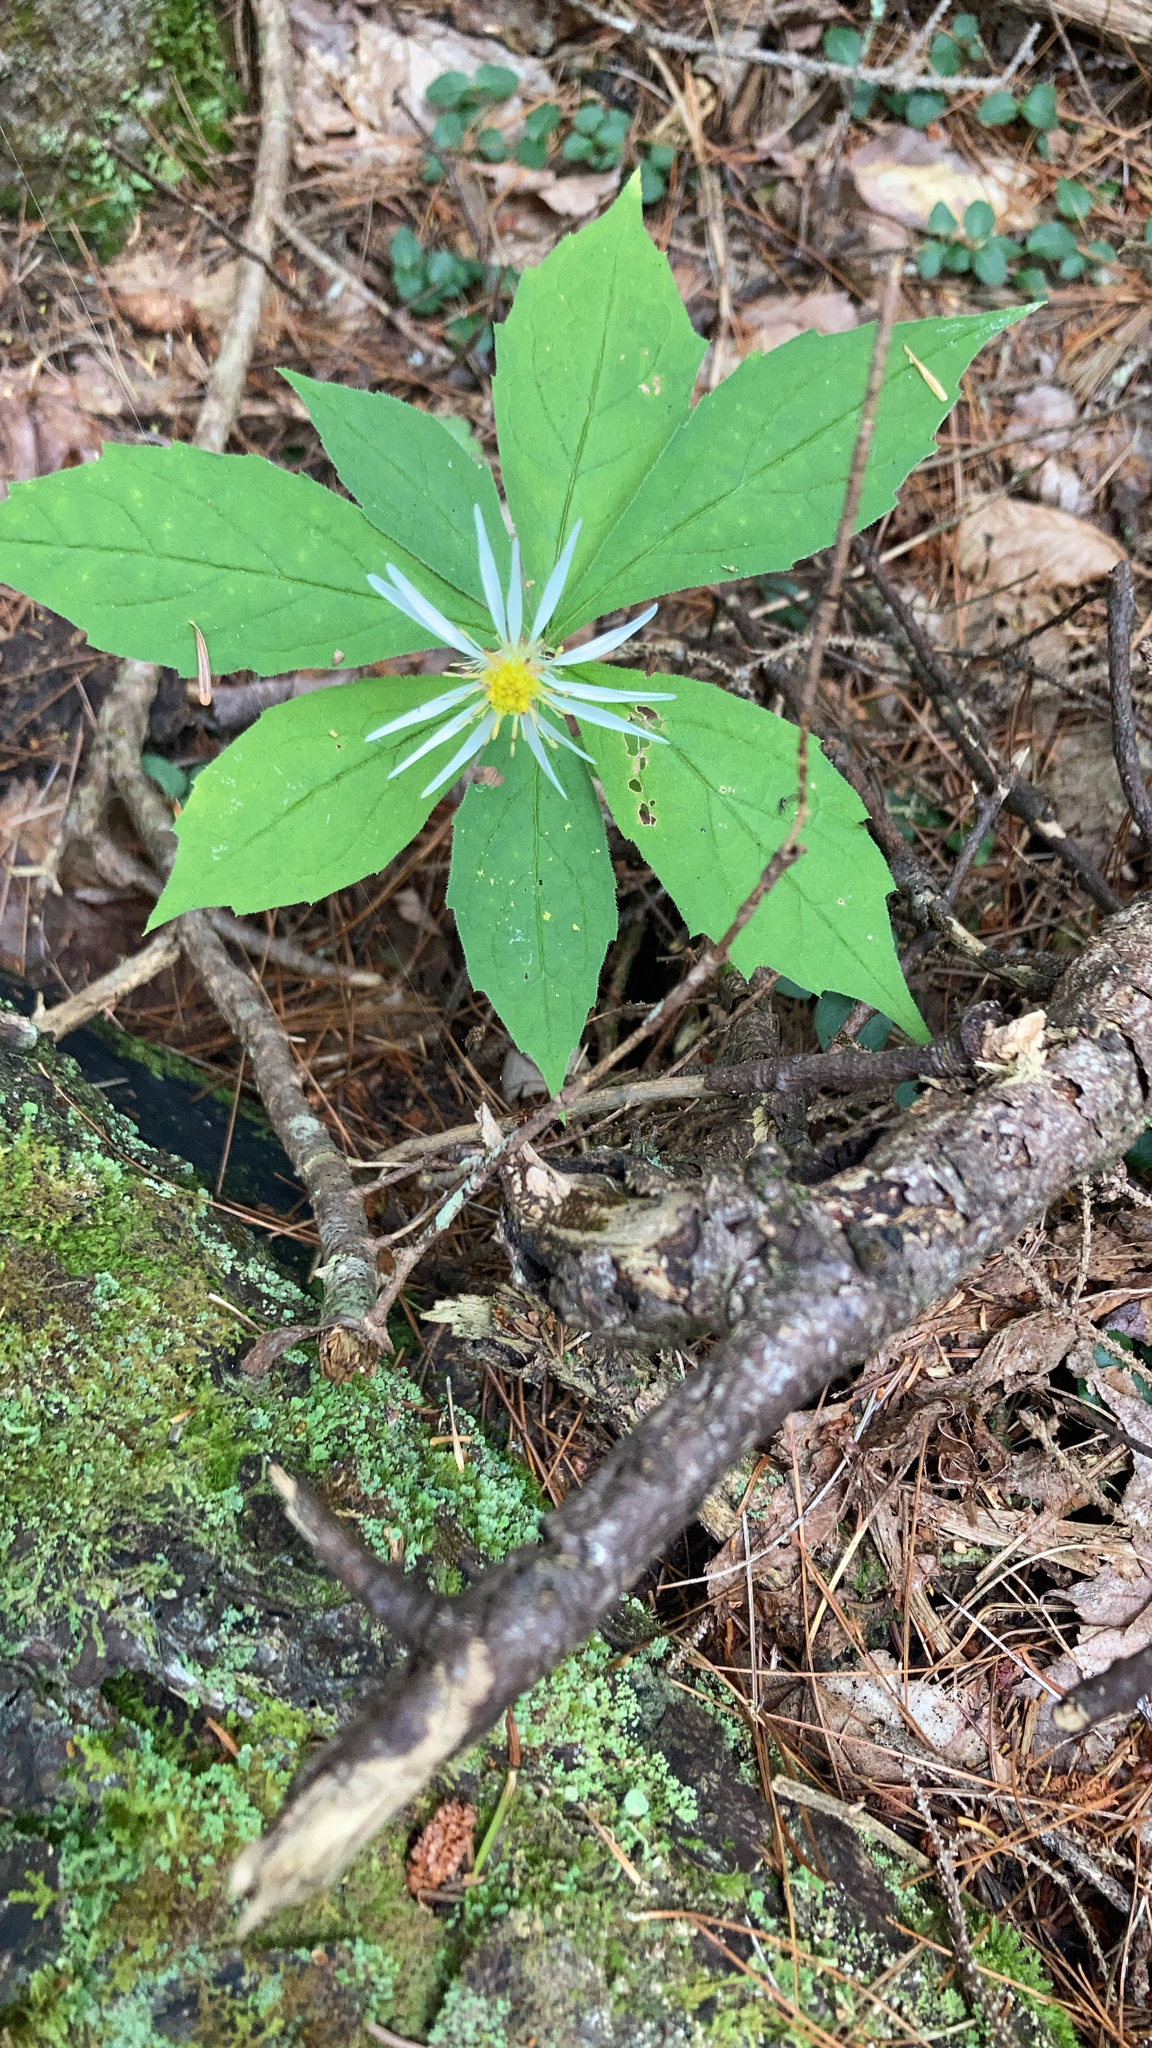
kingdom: Plantae
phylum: Tracheophyta
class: Magnoliopsida
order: Asterales
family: Asteraceae
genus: Oclemena
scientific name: Oclemena acuminata
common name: Mountain aster
